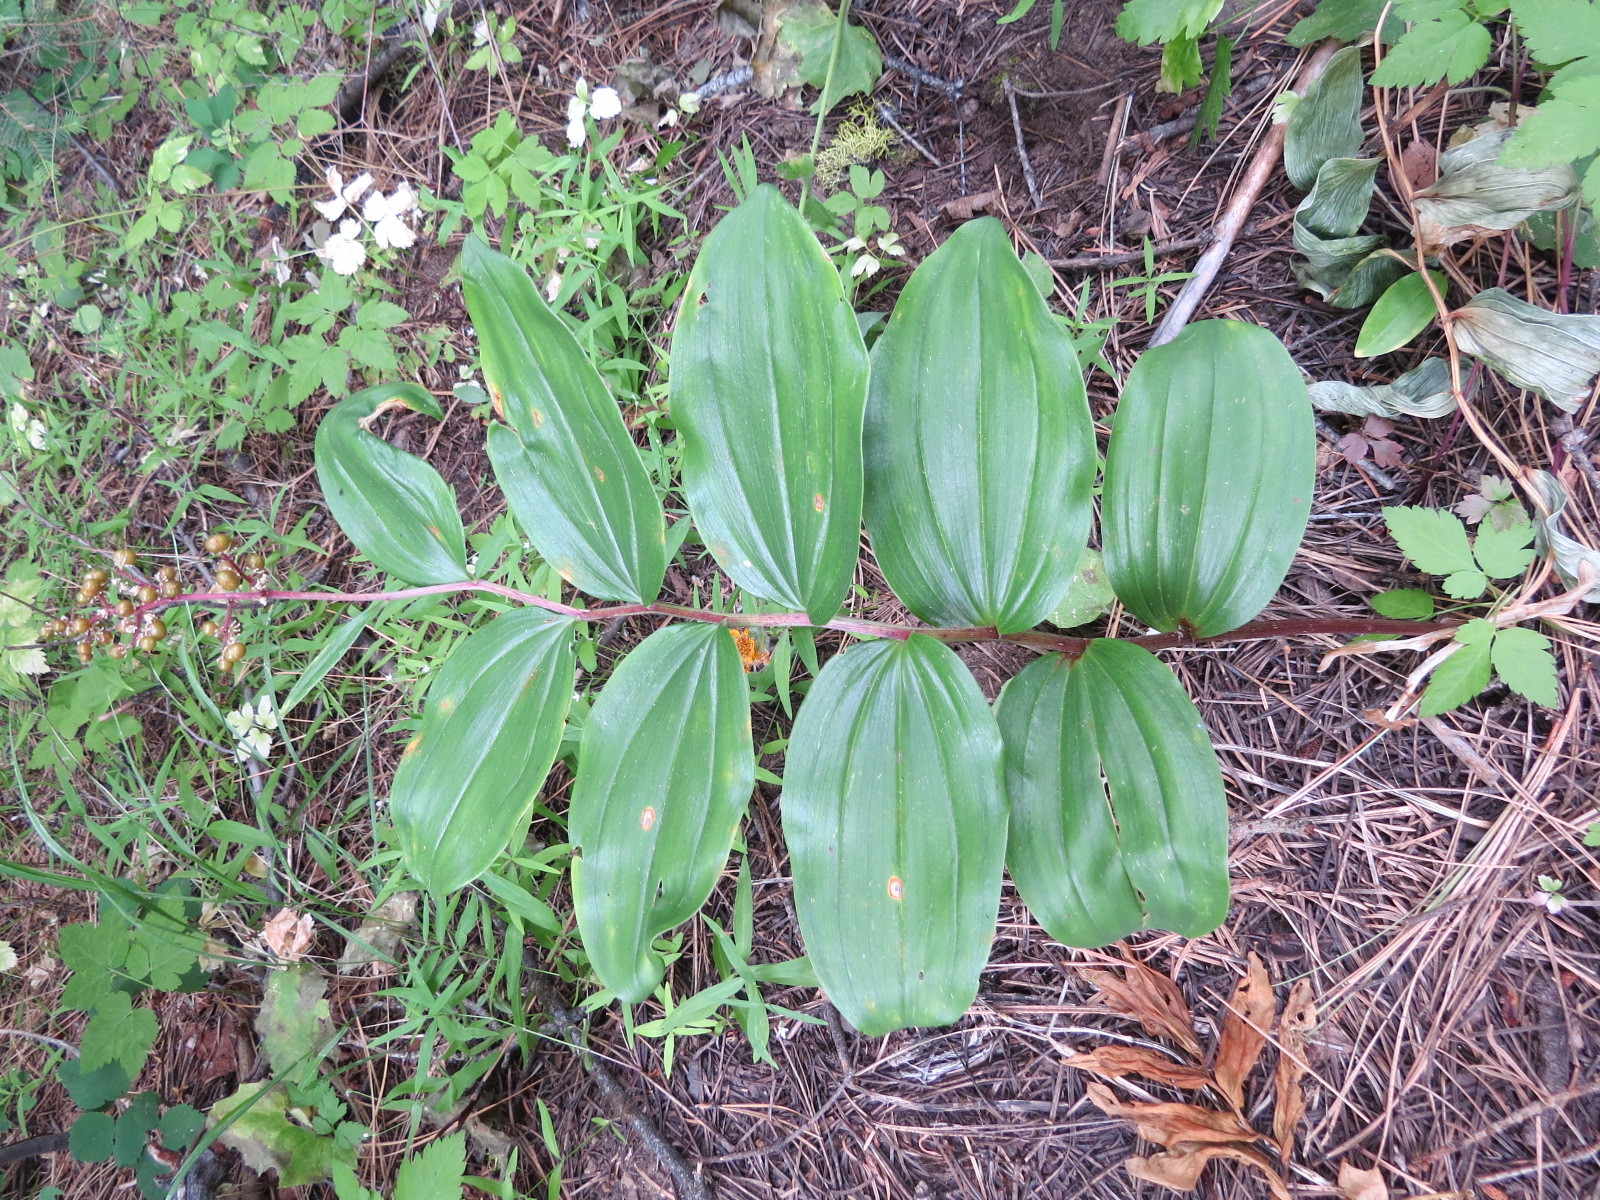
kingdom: Plantae
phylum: Tracheophyta
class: Liliopsida
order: Asparagales
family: Asparagaceae
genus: Maianthemum
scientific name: Maianthemum racemosum
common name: False spikenard
